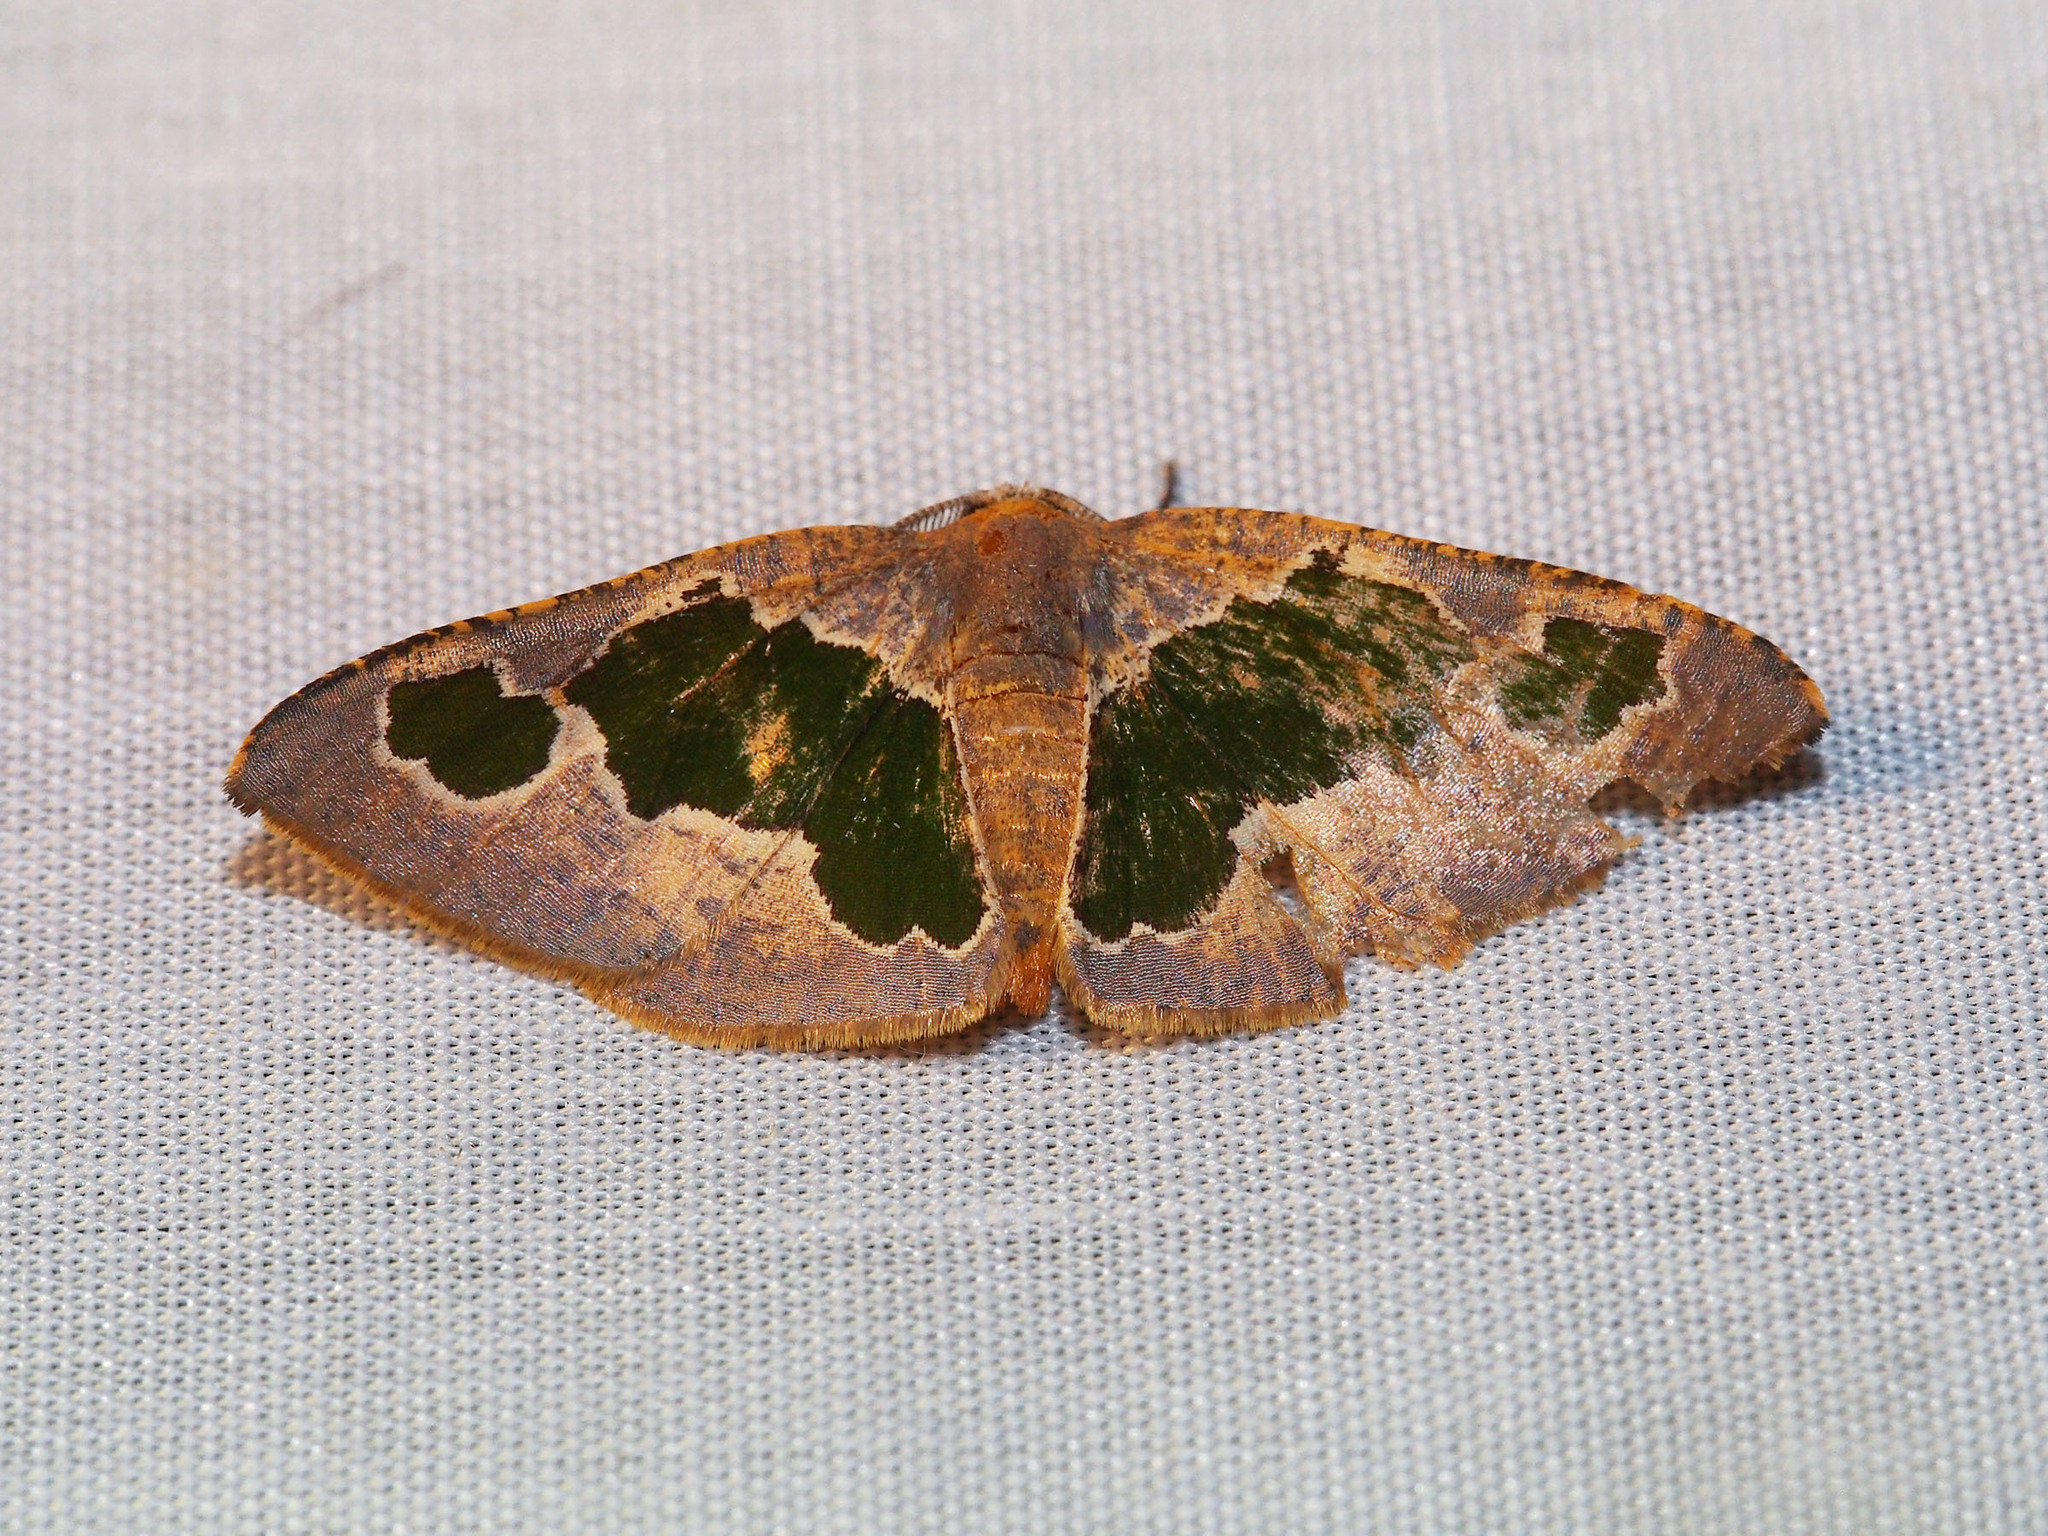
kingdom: Animalia
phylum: Arthropoda
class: Insecta
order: Lepidoptera
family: Geometridae
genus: Celenna
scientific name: Celenna festivaria
